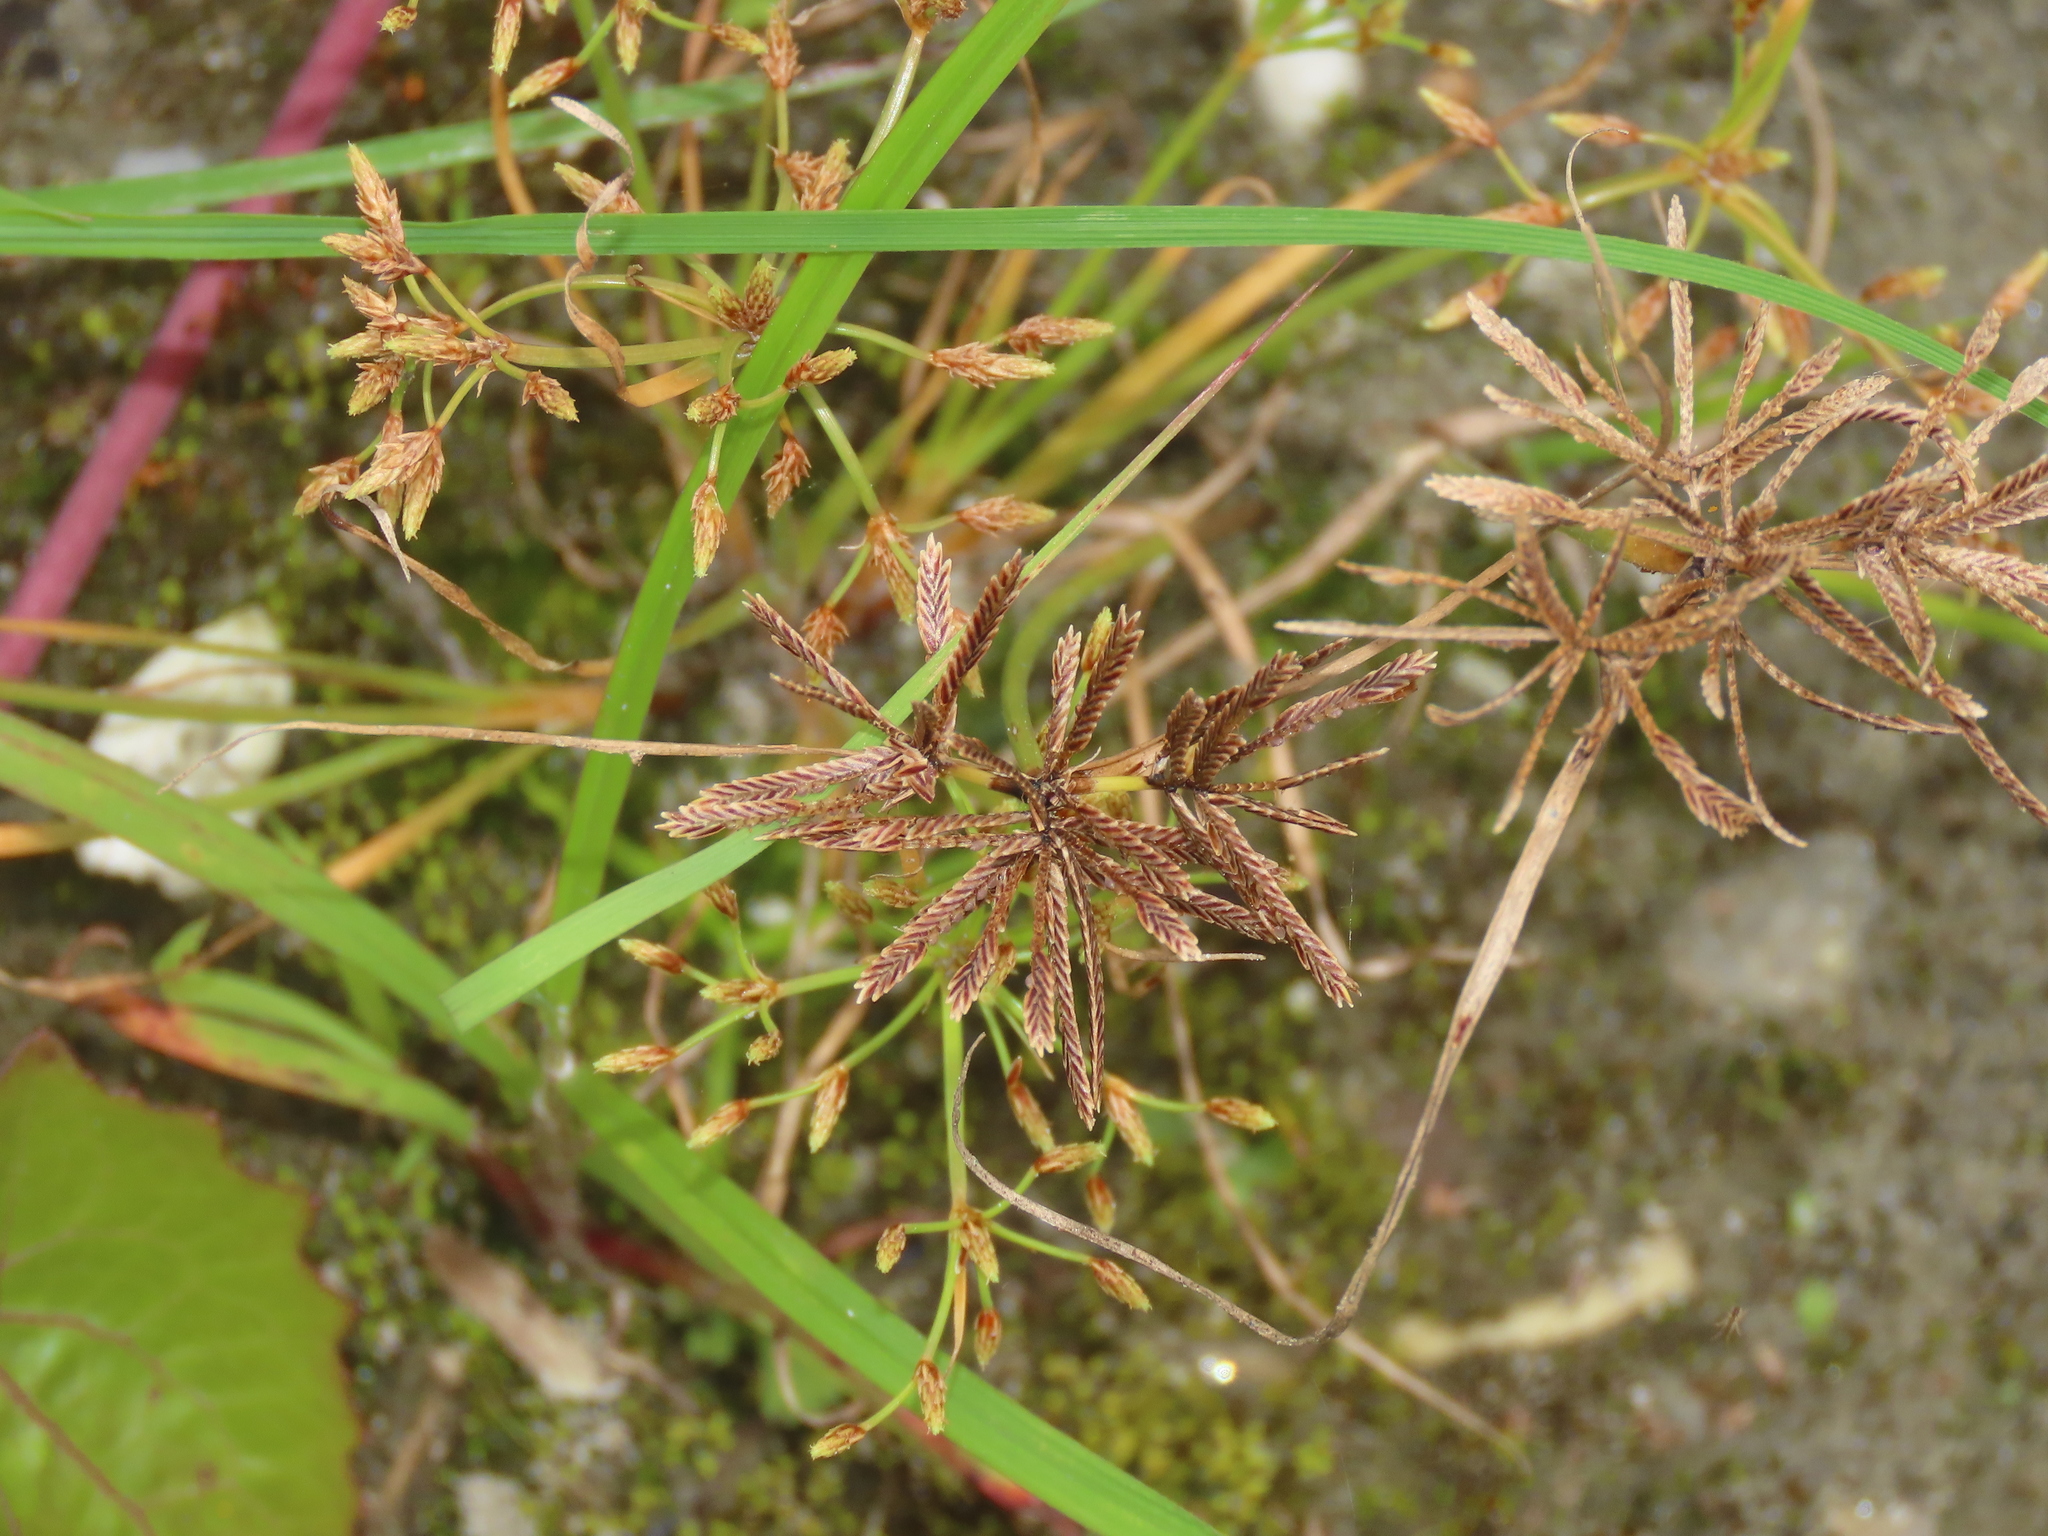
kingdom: Plantae
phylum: Tracheophyta
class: Liliopsida
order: Poales
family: Cyperaceae
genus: Cyperus
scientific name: Cyperus flavidus
